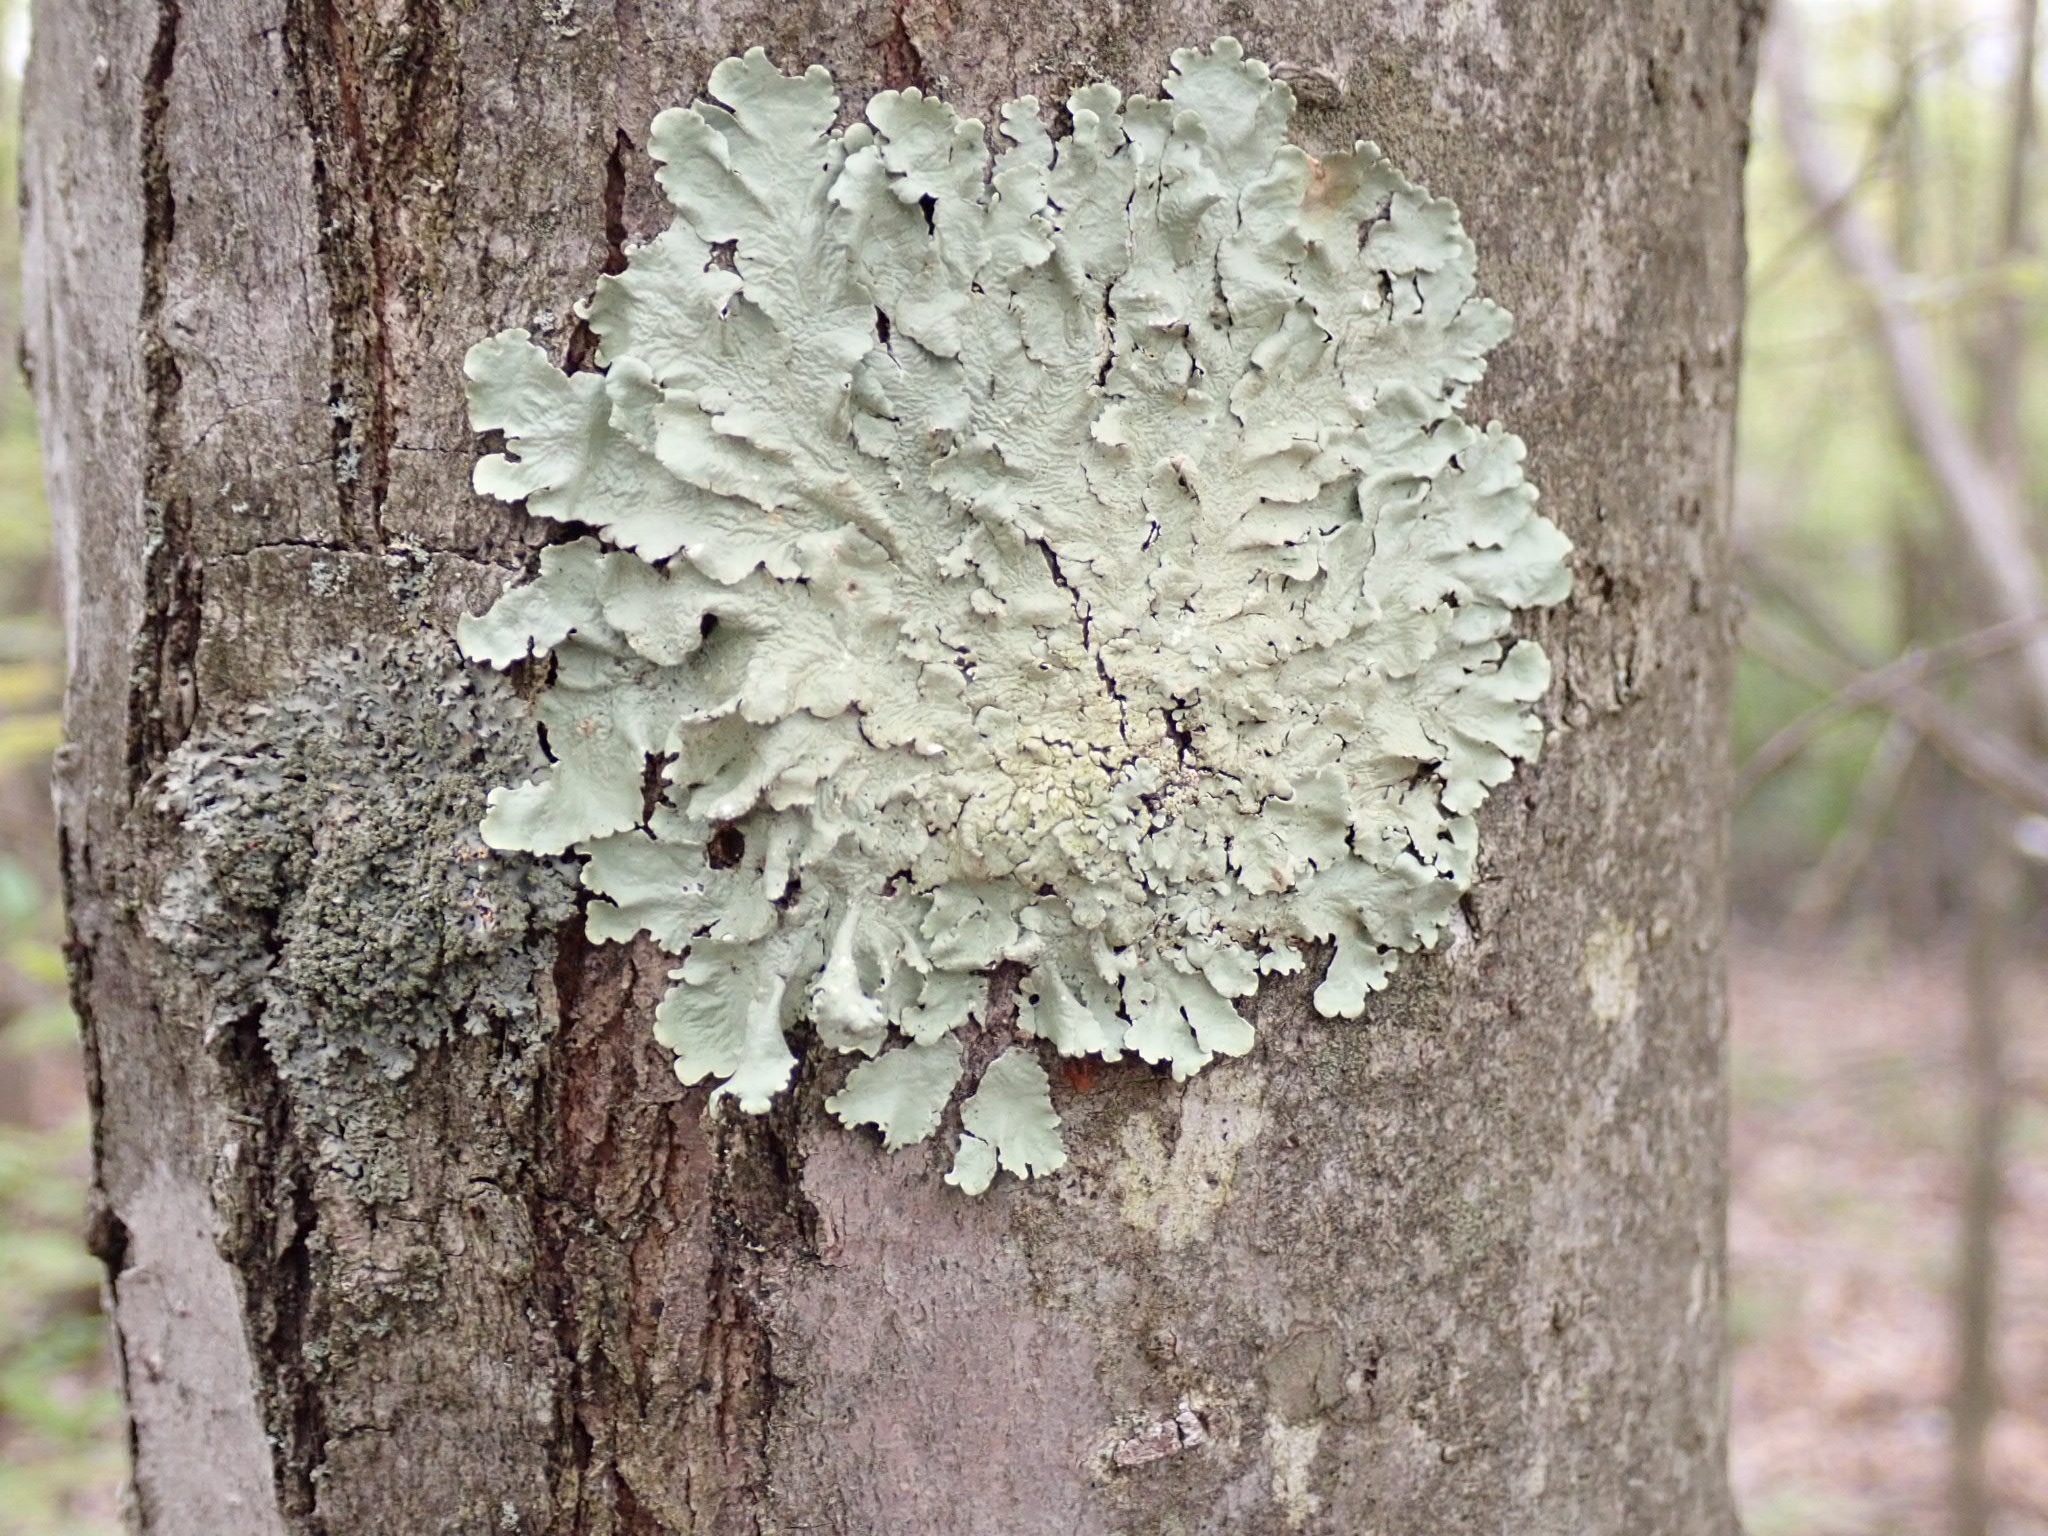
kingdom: Fungi
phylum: Ascomycota
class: Lecanoromycetes
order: Lecanorales
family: Parmeliaceae
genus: Flavoparmelia
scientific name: Flavoparmelia caperata
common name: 40-mile per hour lichen
